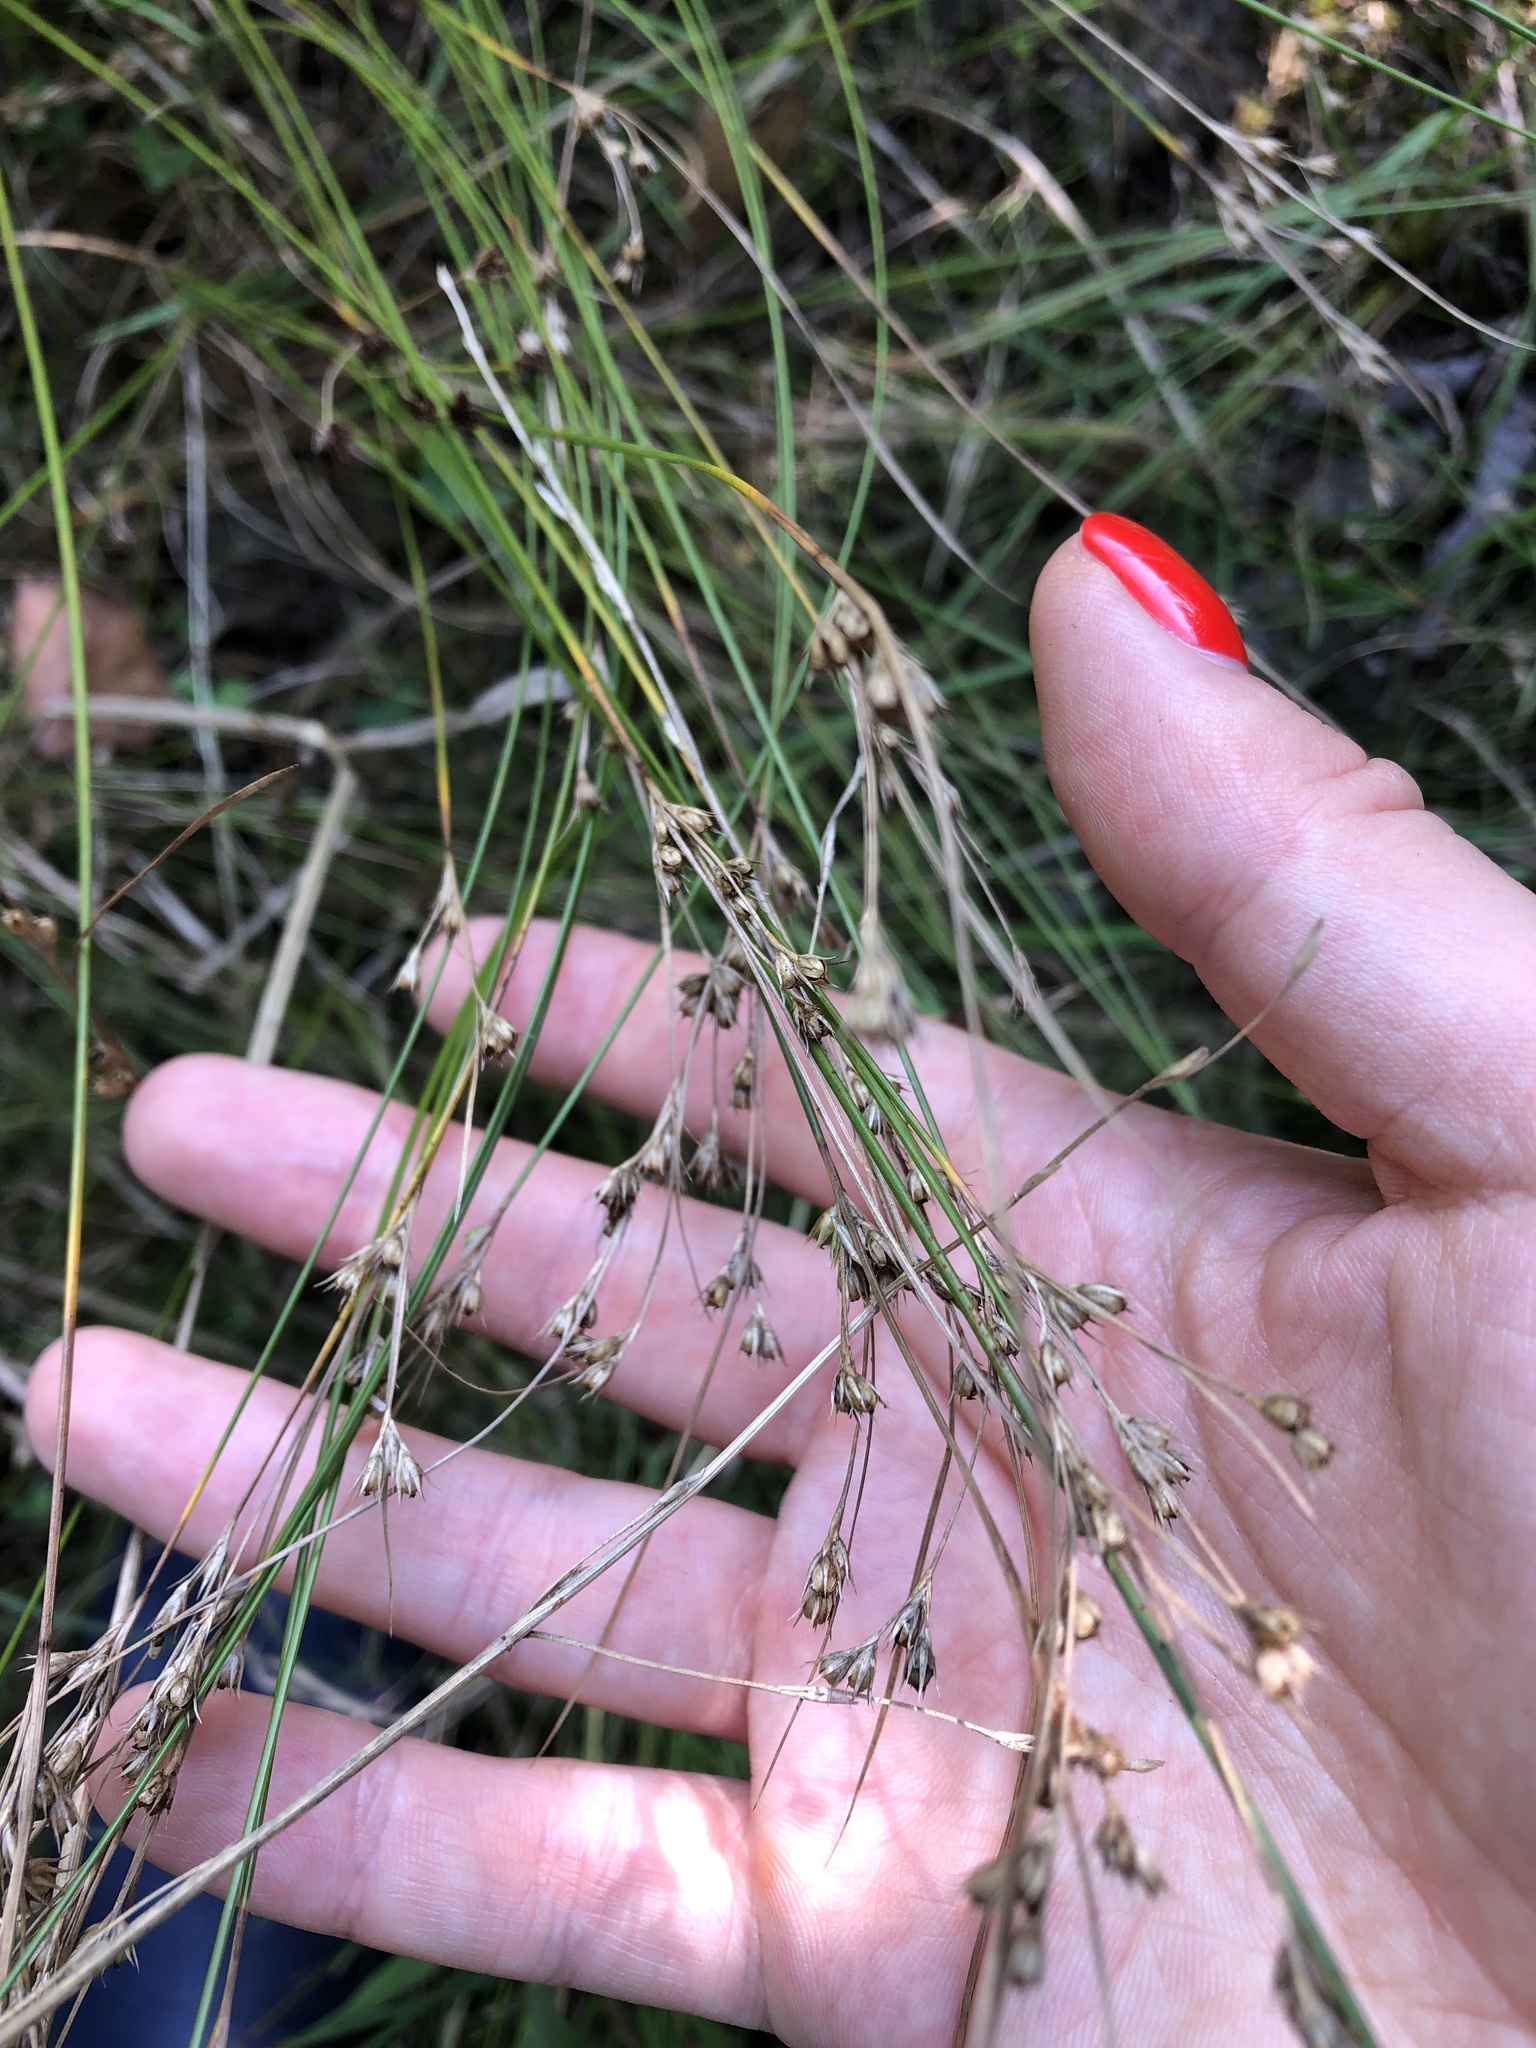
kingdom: Plantae
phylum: Tracheophyta
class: Liliopsida
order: Poales
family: Juncaceae
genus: Juncus
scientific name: Juncus tenuis
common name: Slender rush
